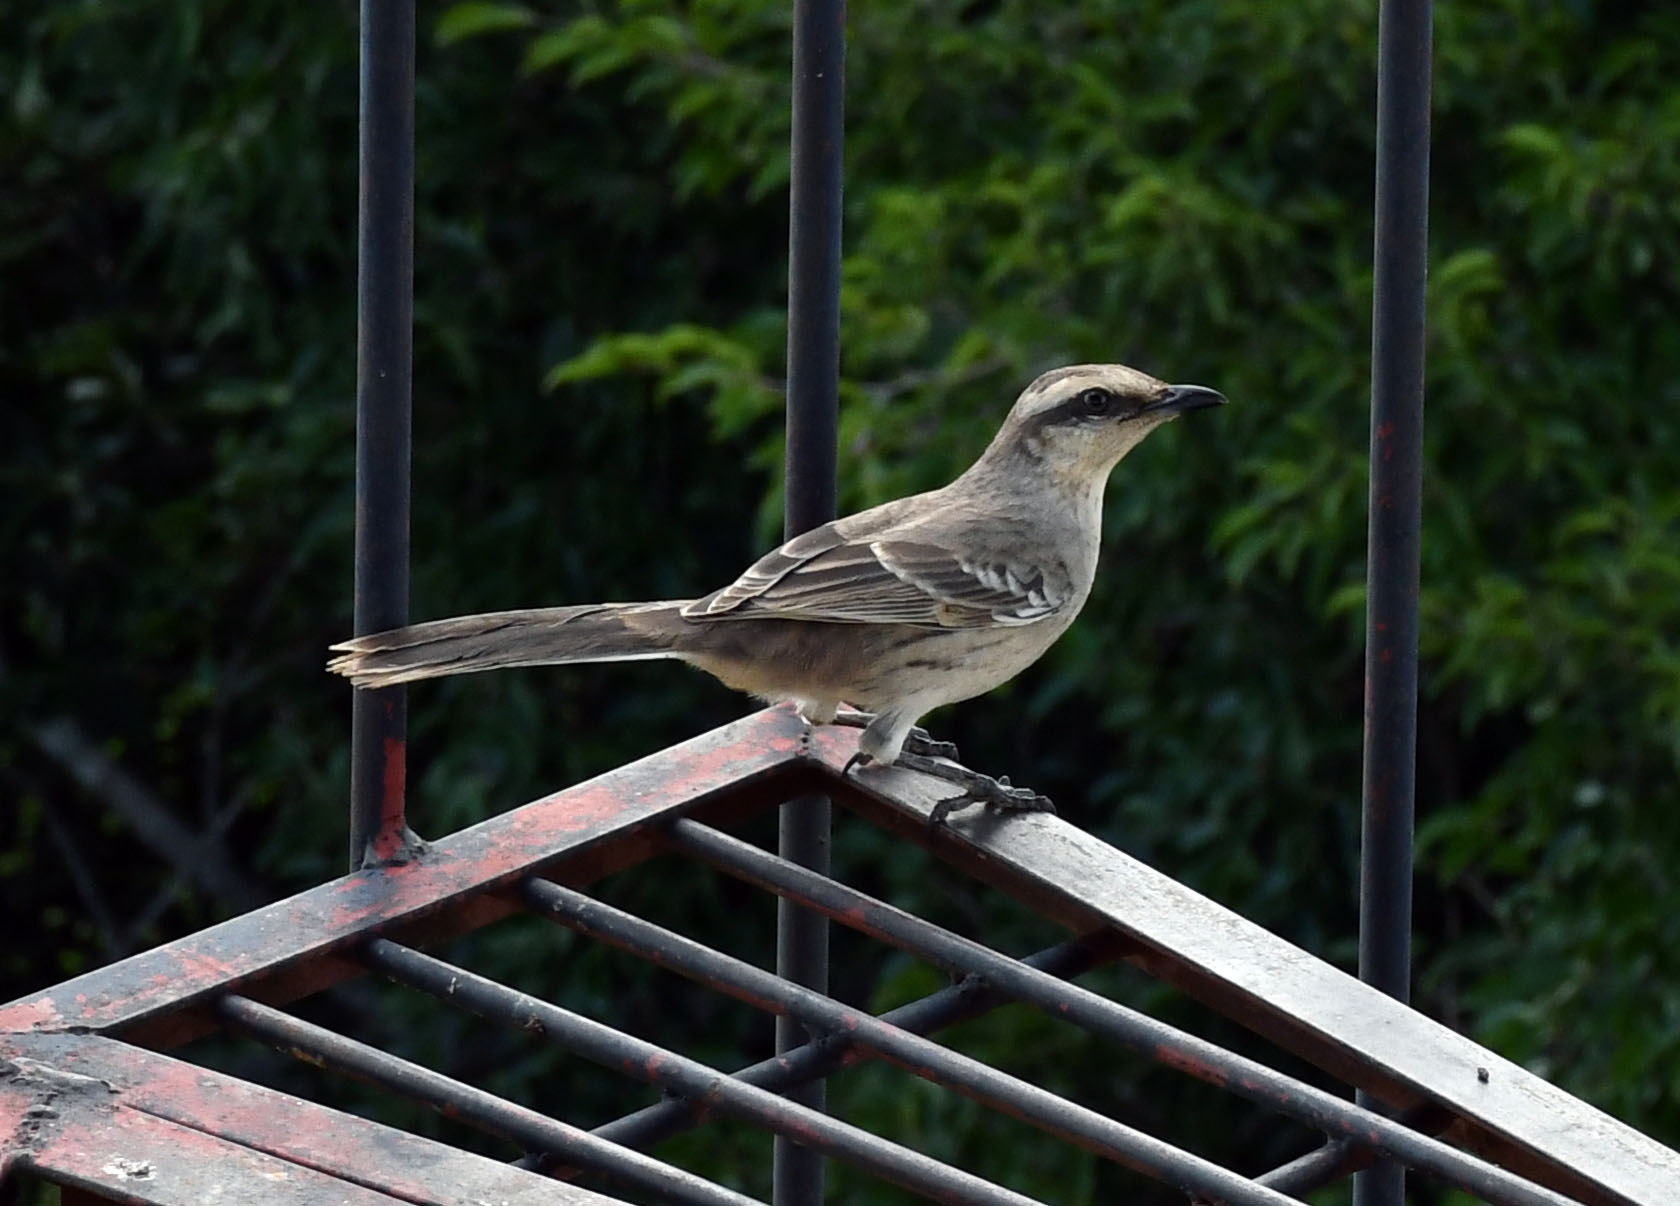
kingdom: Animalia
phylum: Chordata
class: Aves
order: Passeriformes
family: Mimidae
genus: Mimus
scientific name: Mimus saturninus
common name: Chalk-browed mockingbird
